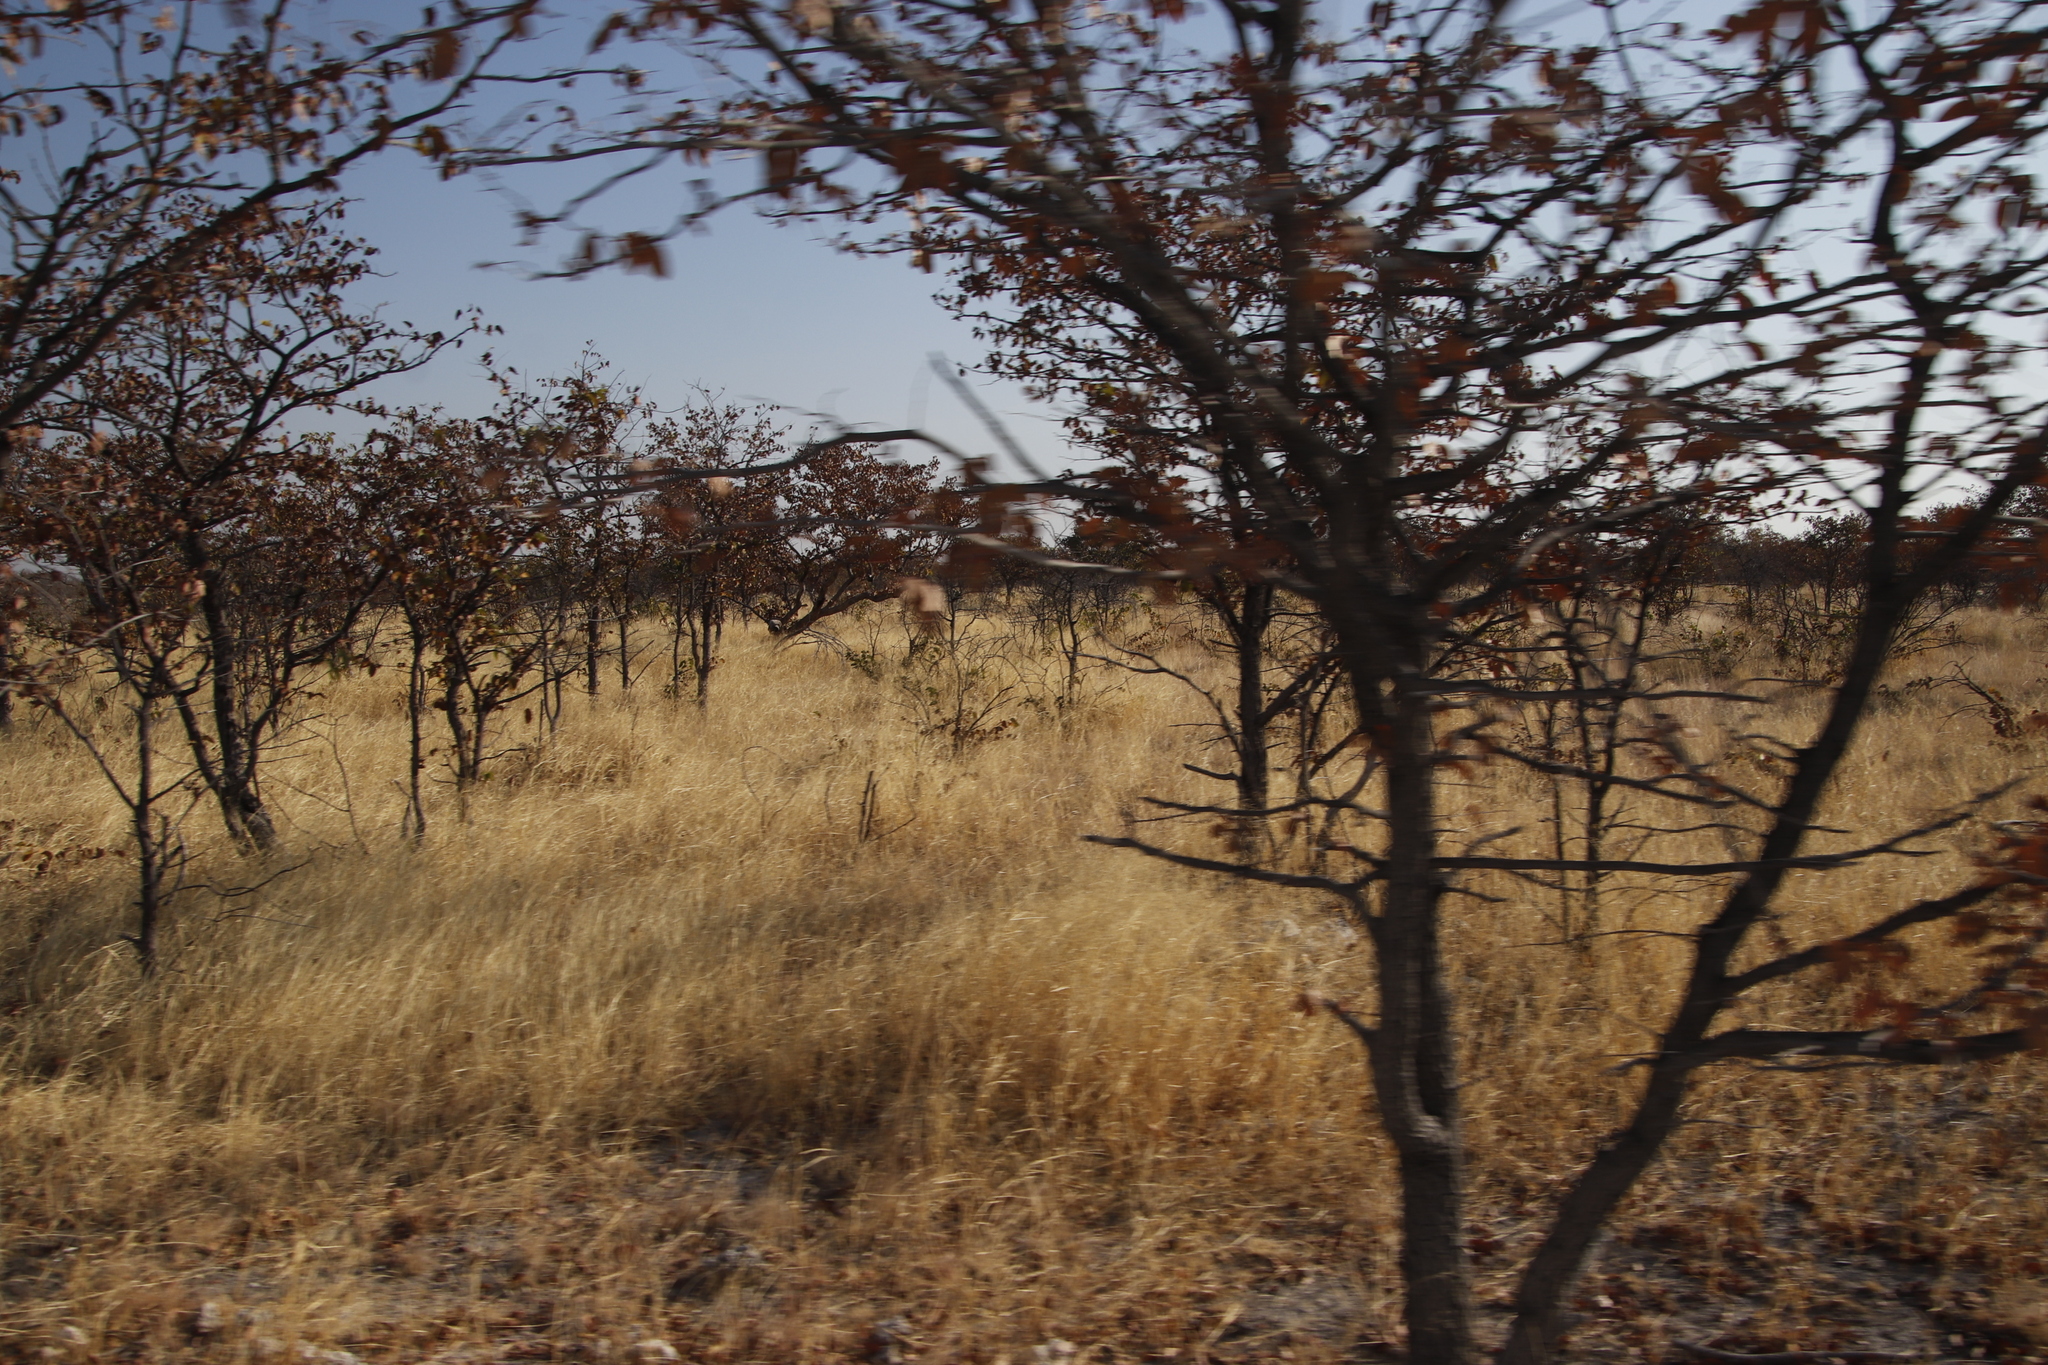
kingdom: Plantae
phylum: Tracheophyta
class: Magnoliopsida
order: Fabales
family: Fabaceae
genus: Colophospermum
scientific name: Colophospermum mopane
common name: Mopane
